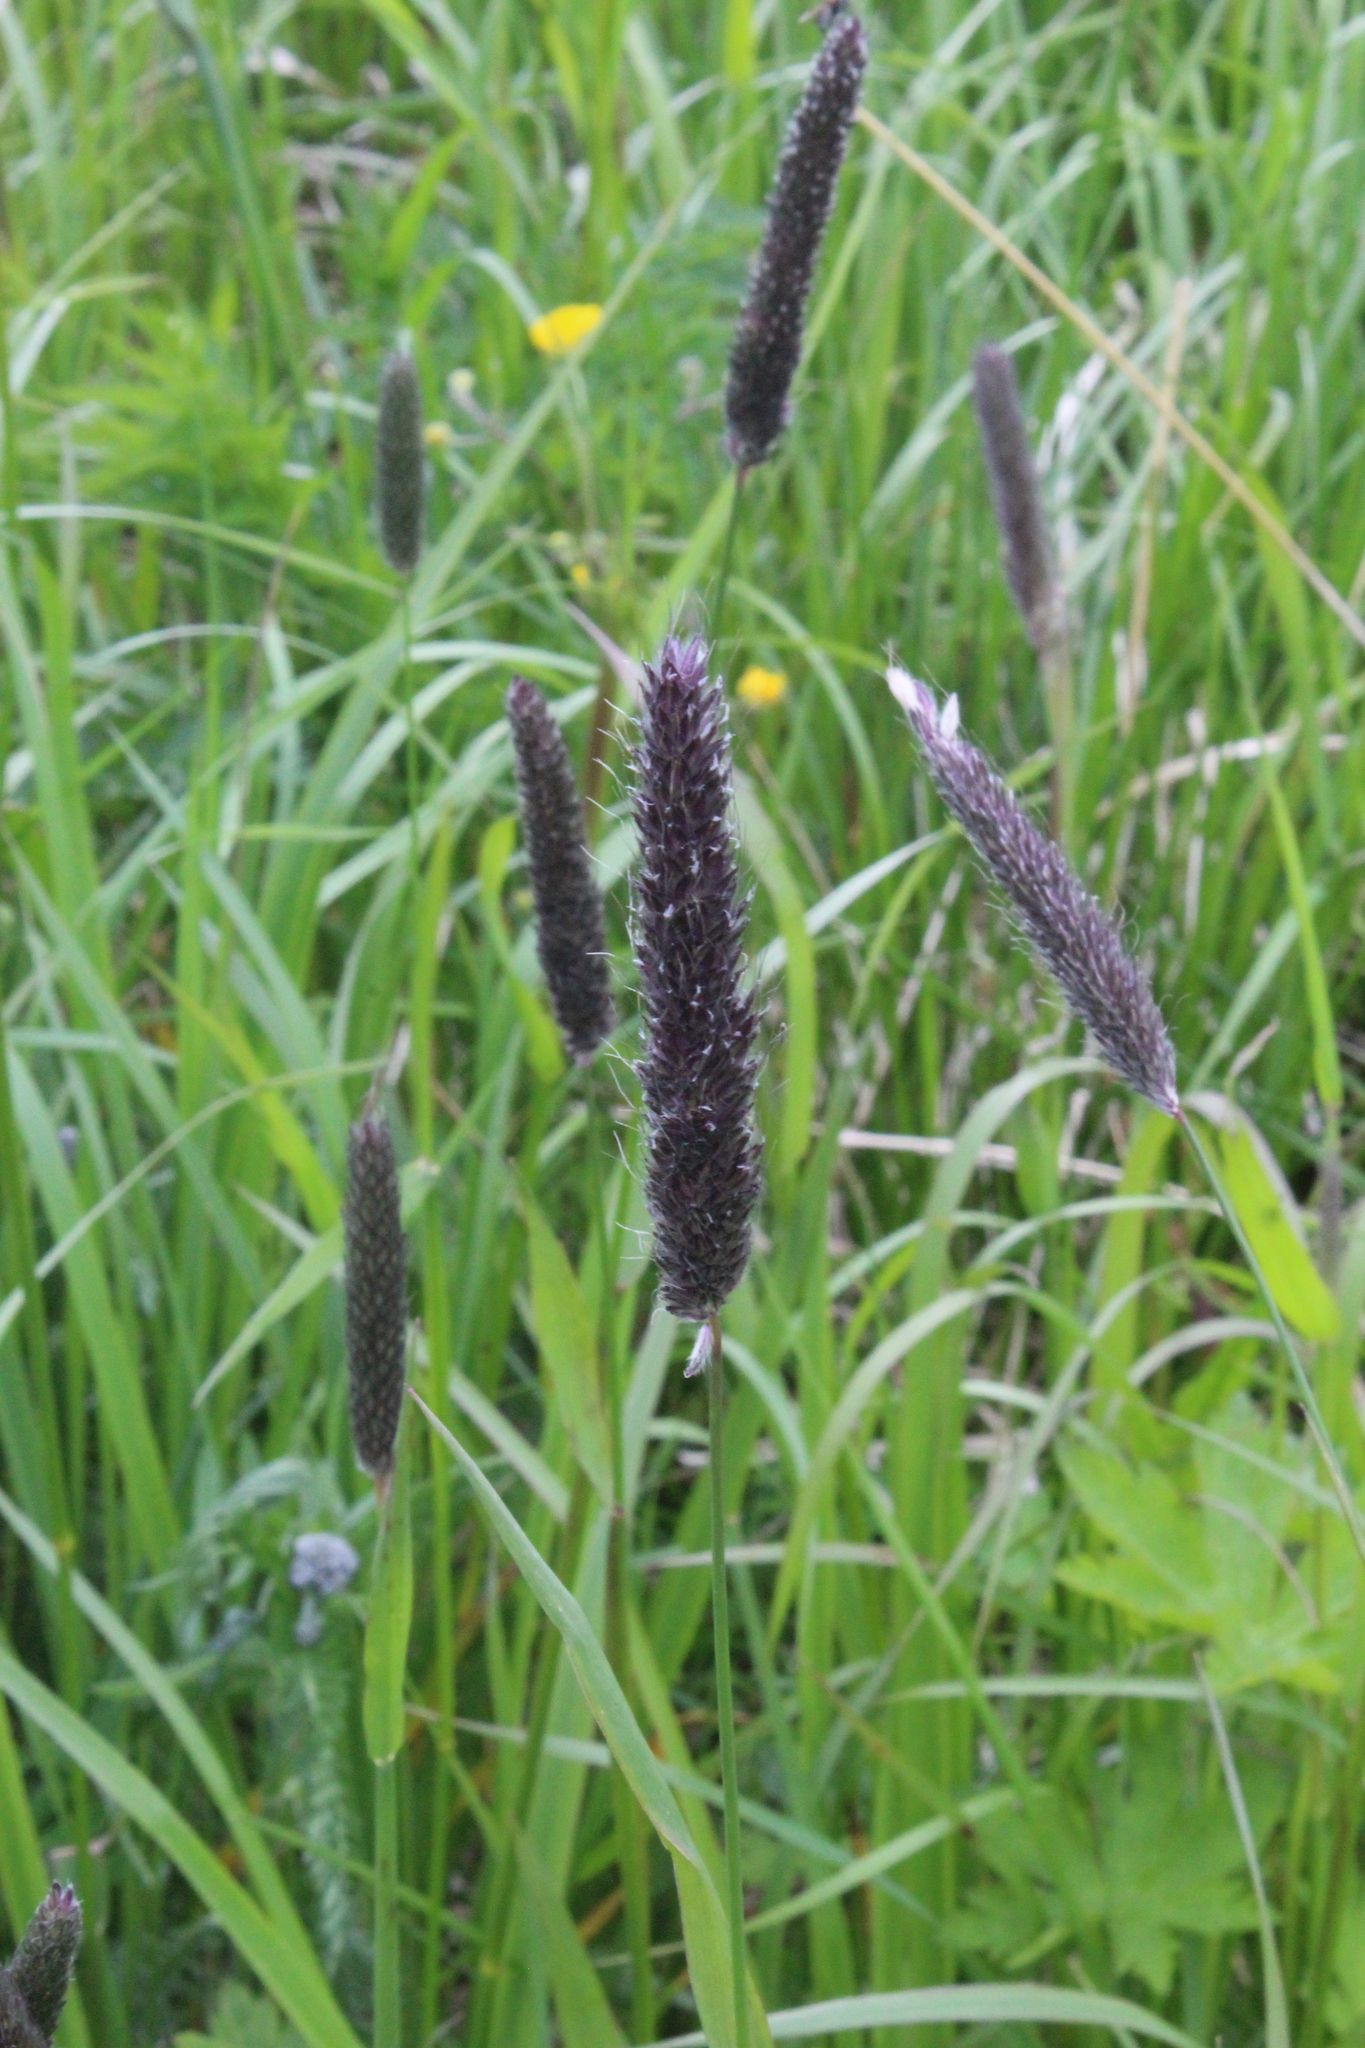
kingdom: Plantae
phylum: Tracheophyta
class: Liliopsida
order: Poales
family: Poaceae
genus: Alopecurus
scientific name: Alopecurus arundinaceus
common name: Creeping meadow foxtail
